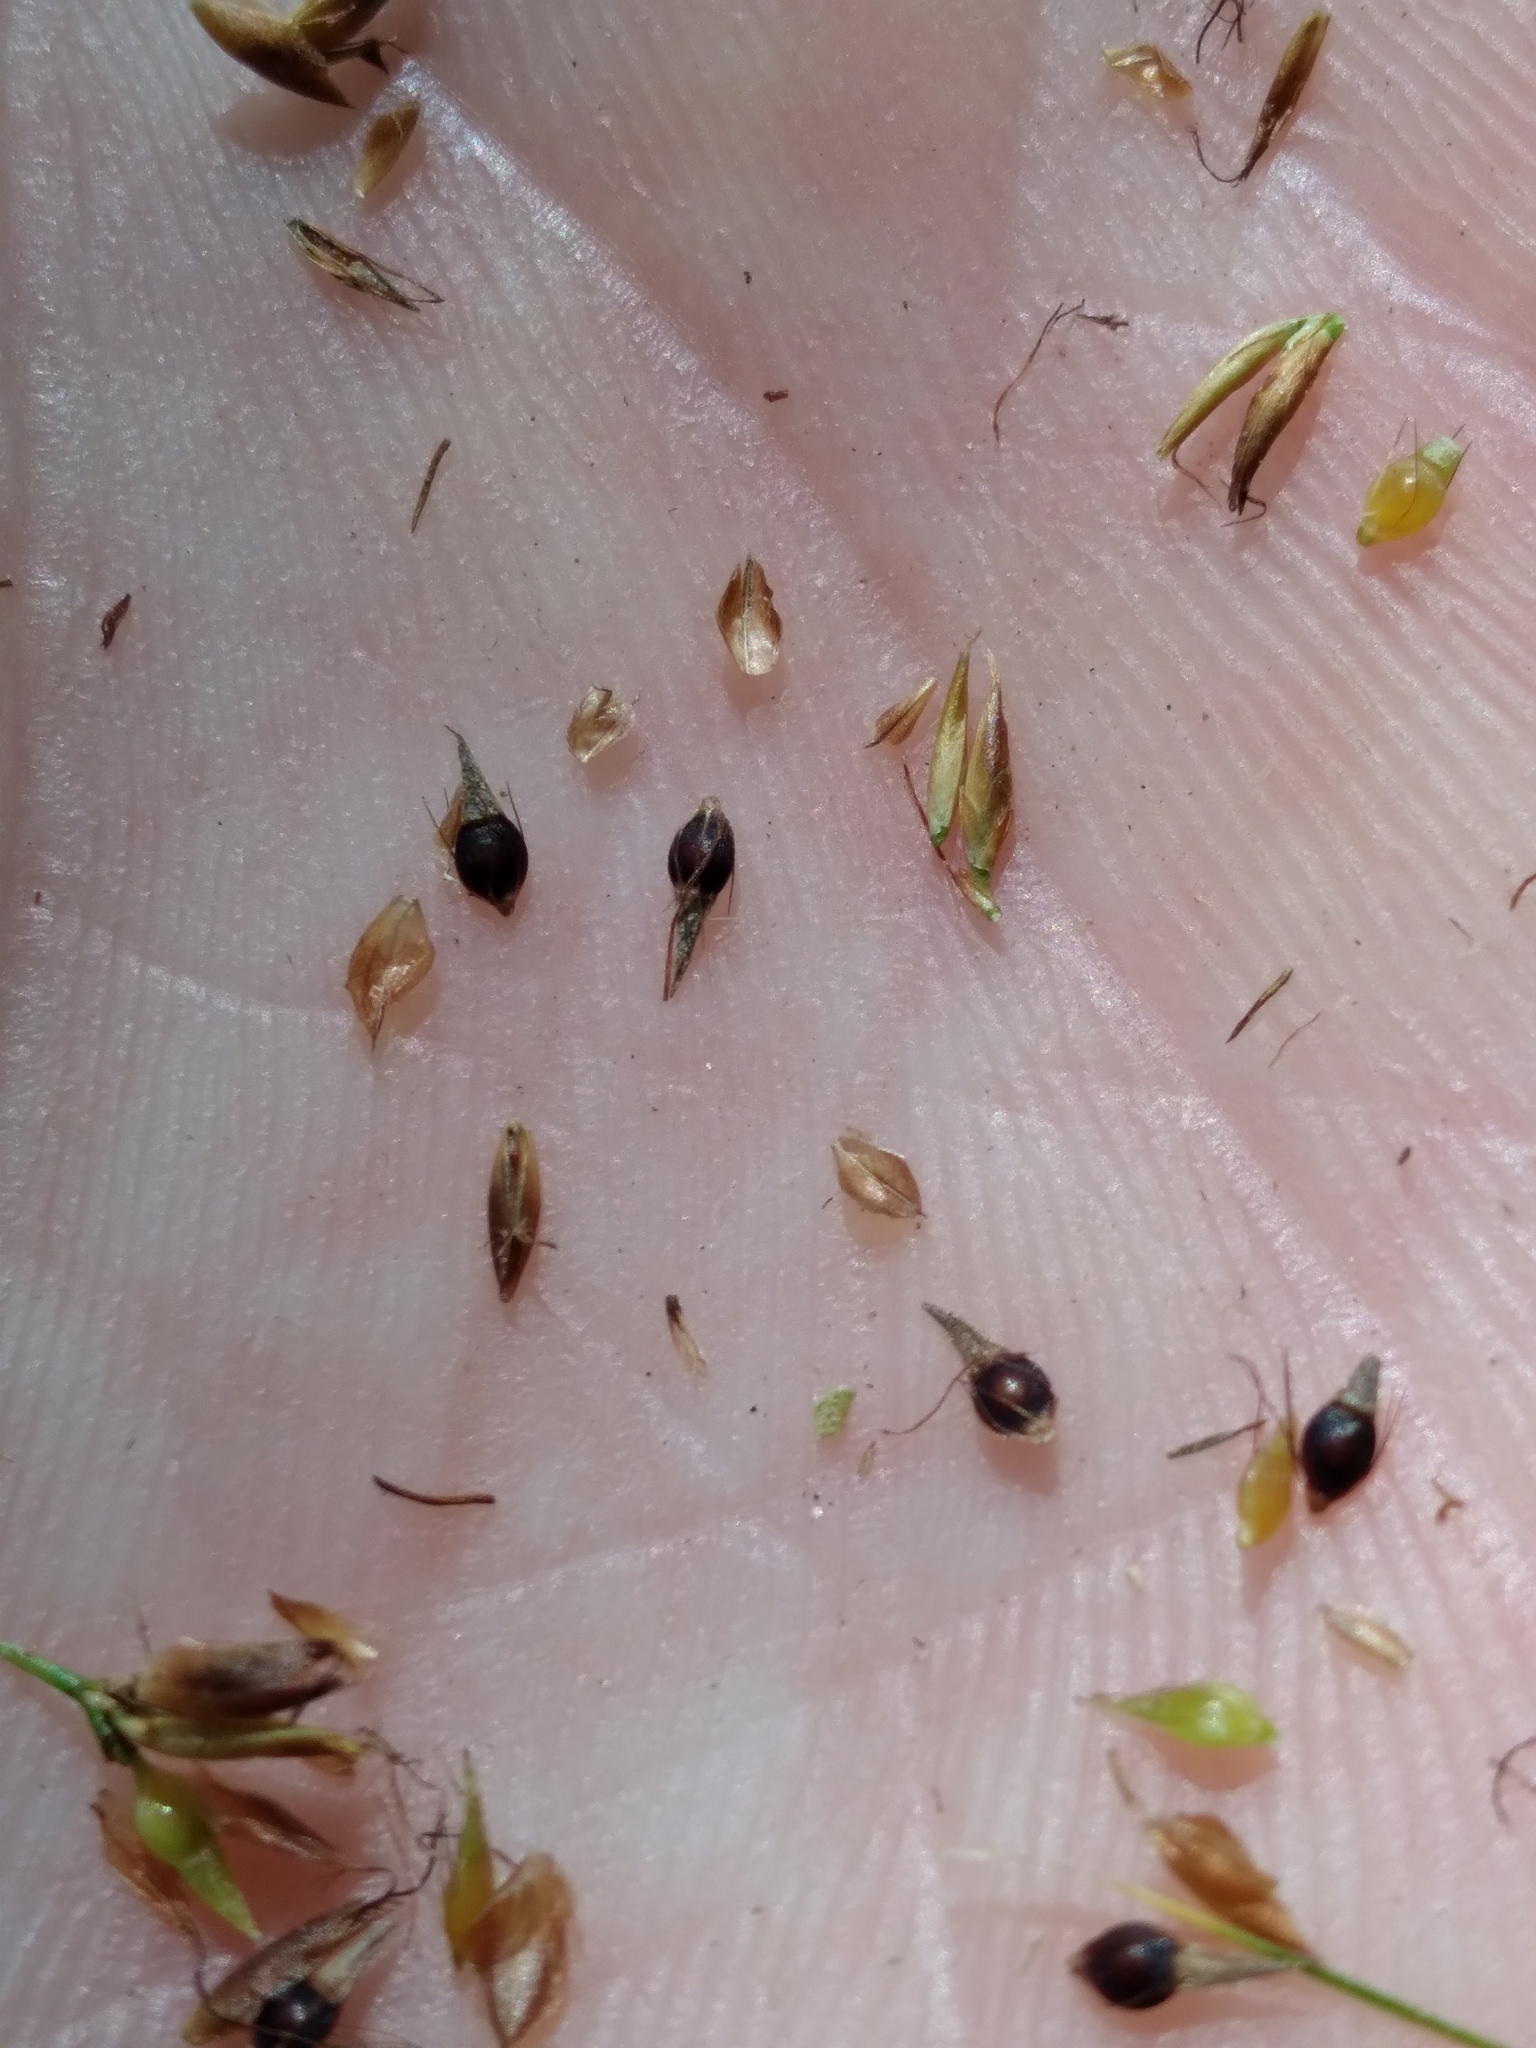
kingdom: Plantae
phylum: Tracheophyta
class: Liliopsida
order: Poales
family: Cyperaceae
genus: Rhynchospora
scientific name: Rhynchospora gracilenta
